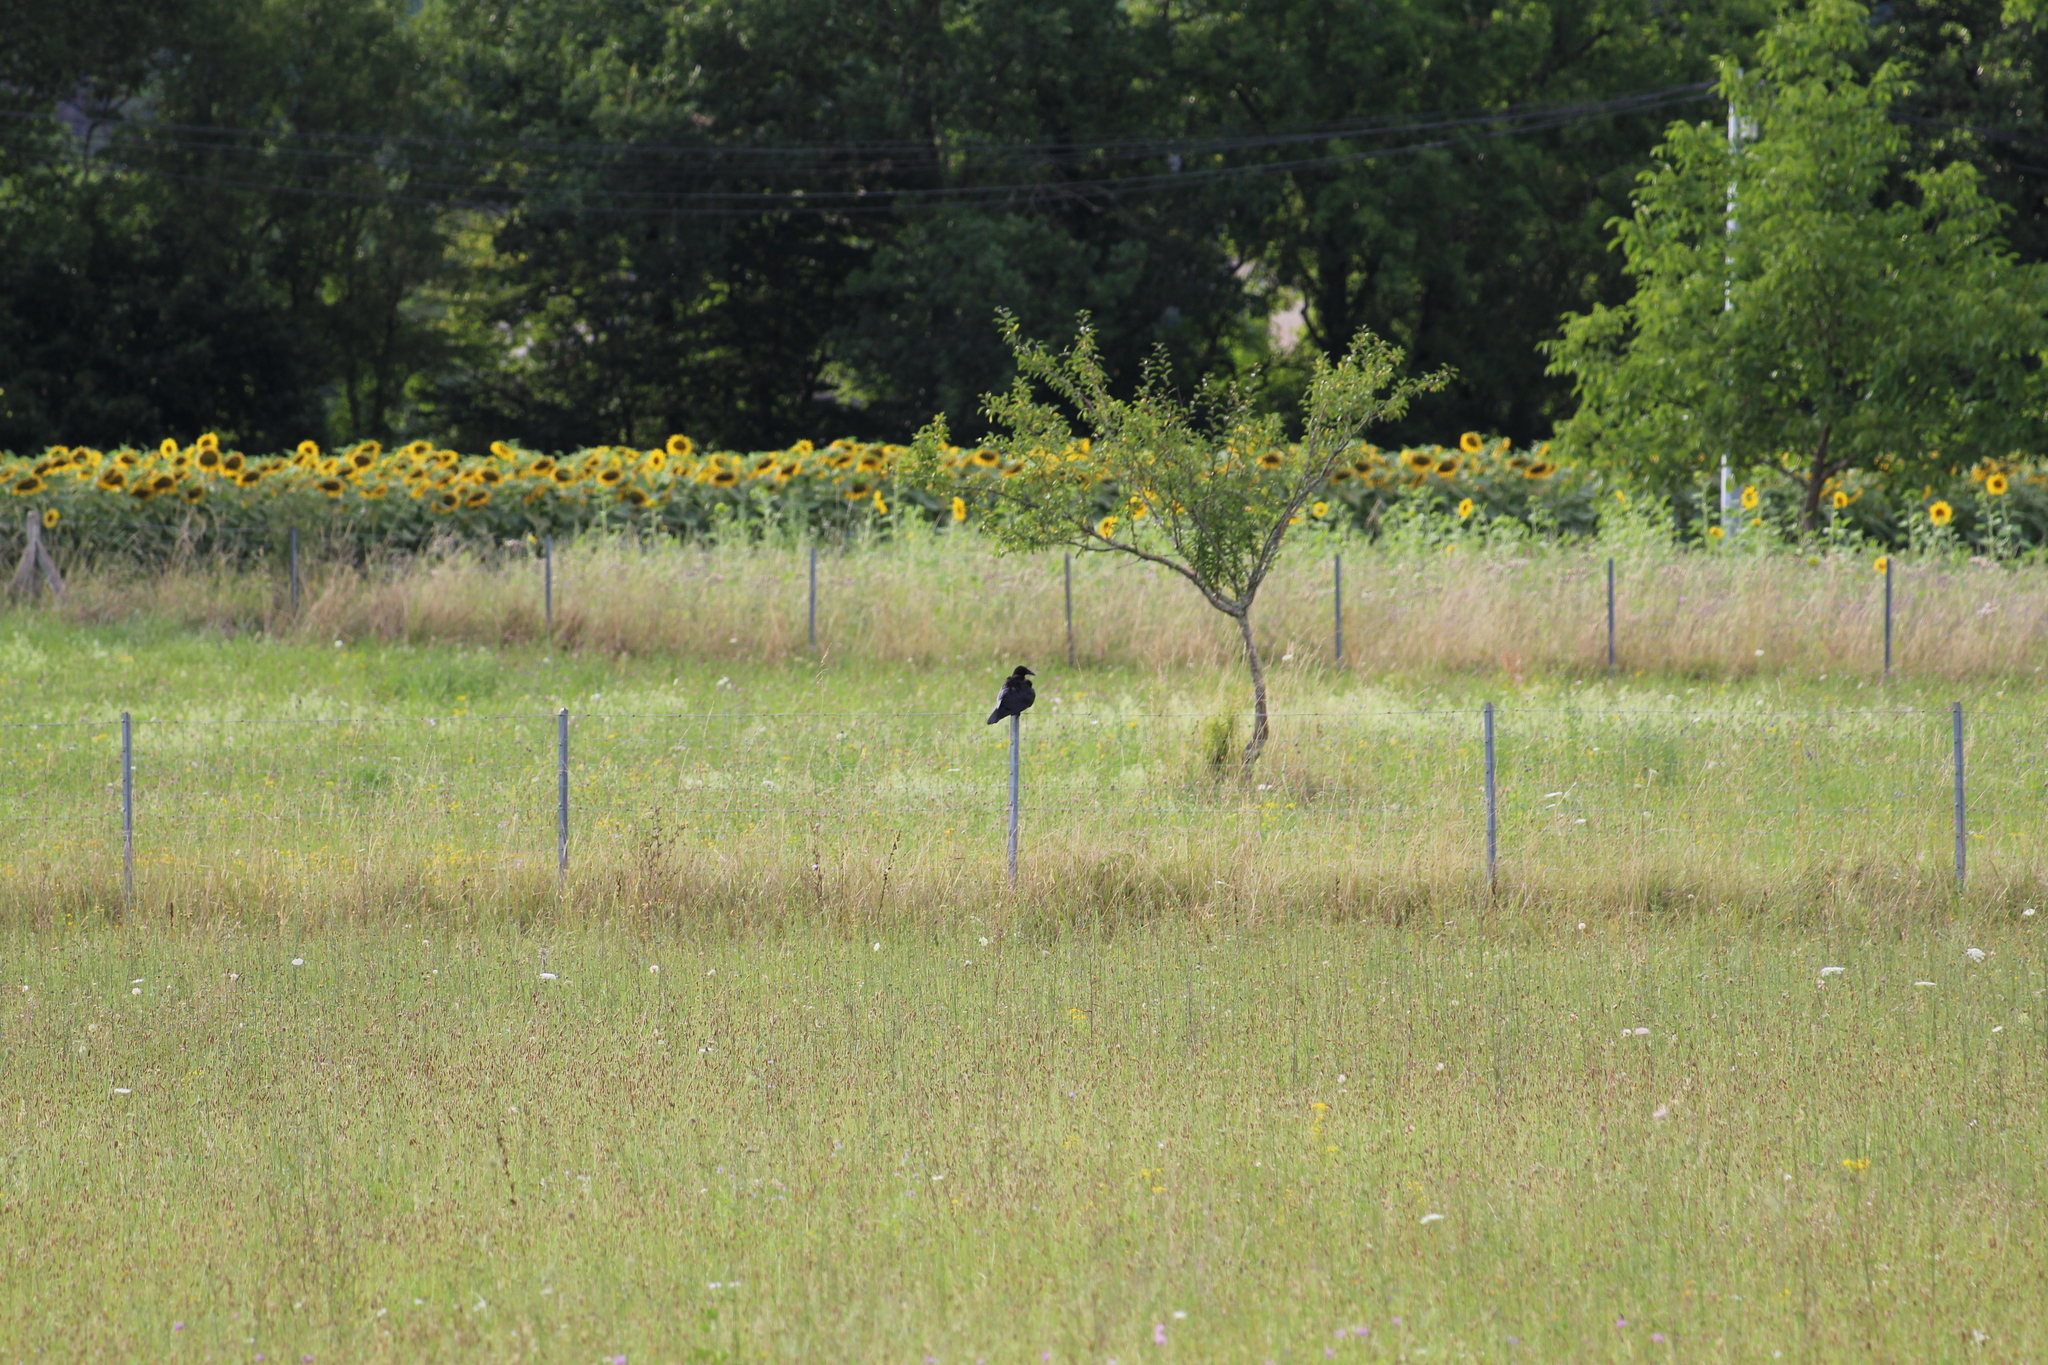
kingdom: Animalia
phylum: Chordata
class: Aves
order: Passeriformes
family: Corvidae
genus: Corvus
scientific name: Corvus corone
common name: Carrion crow
